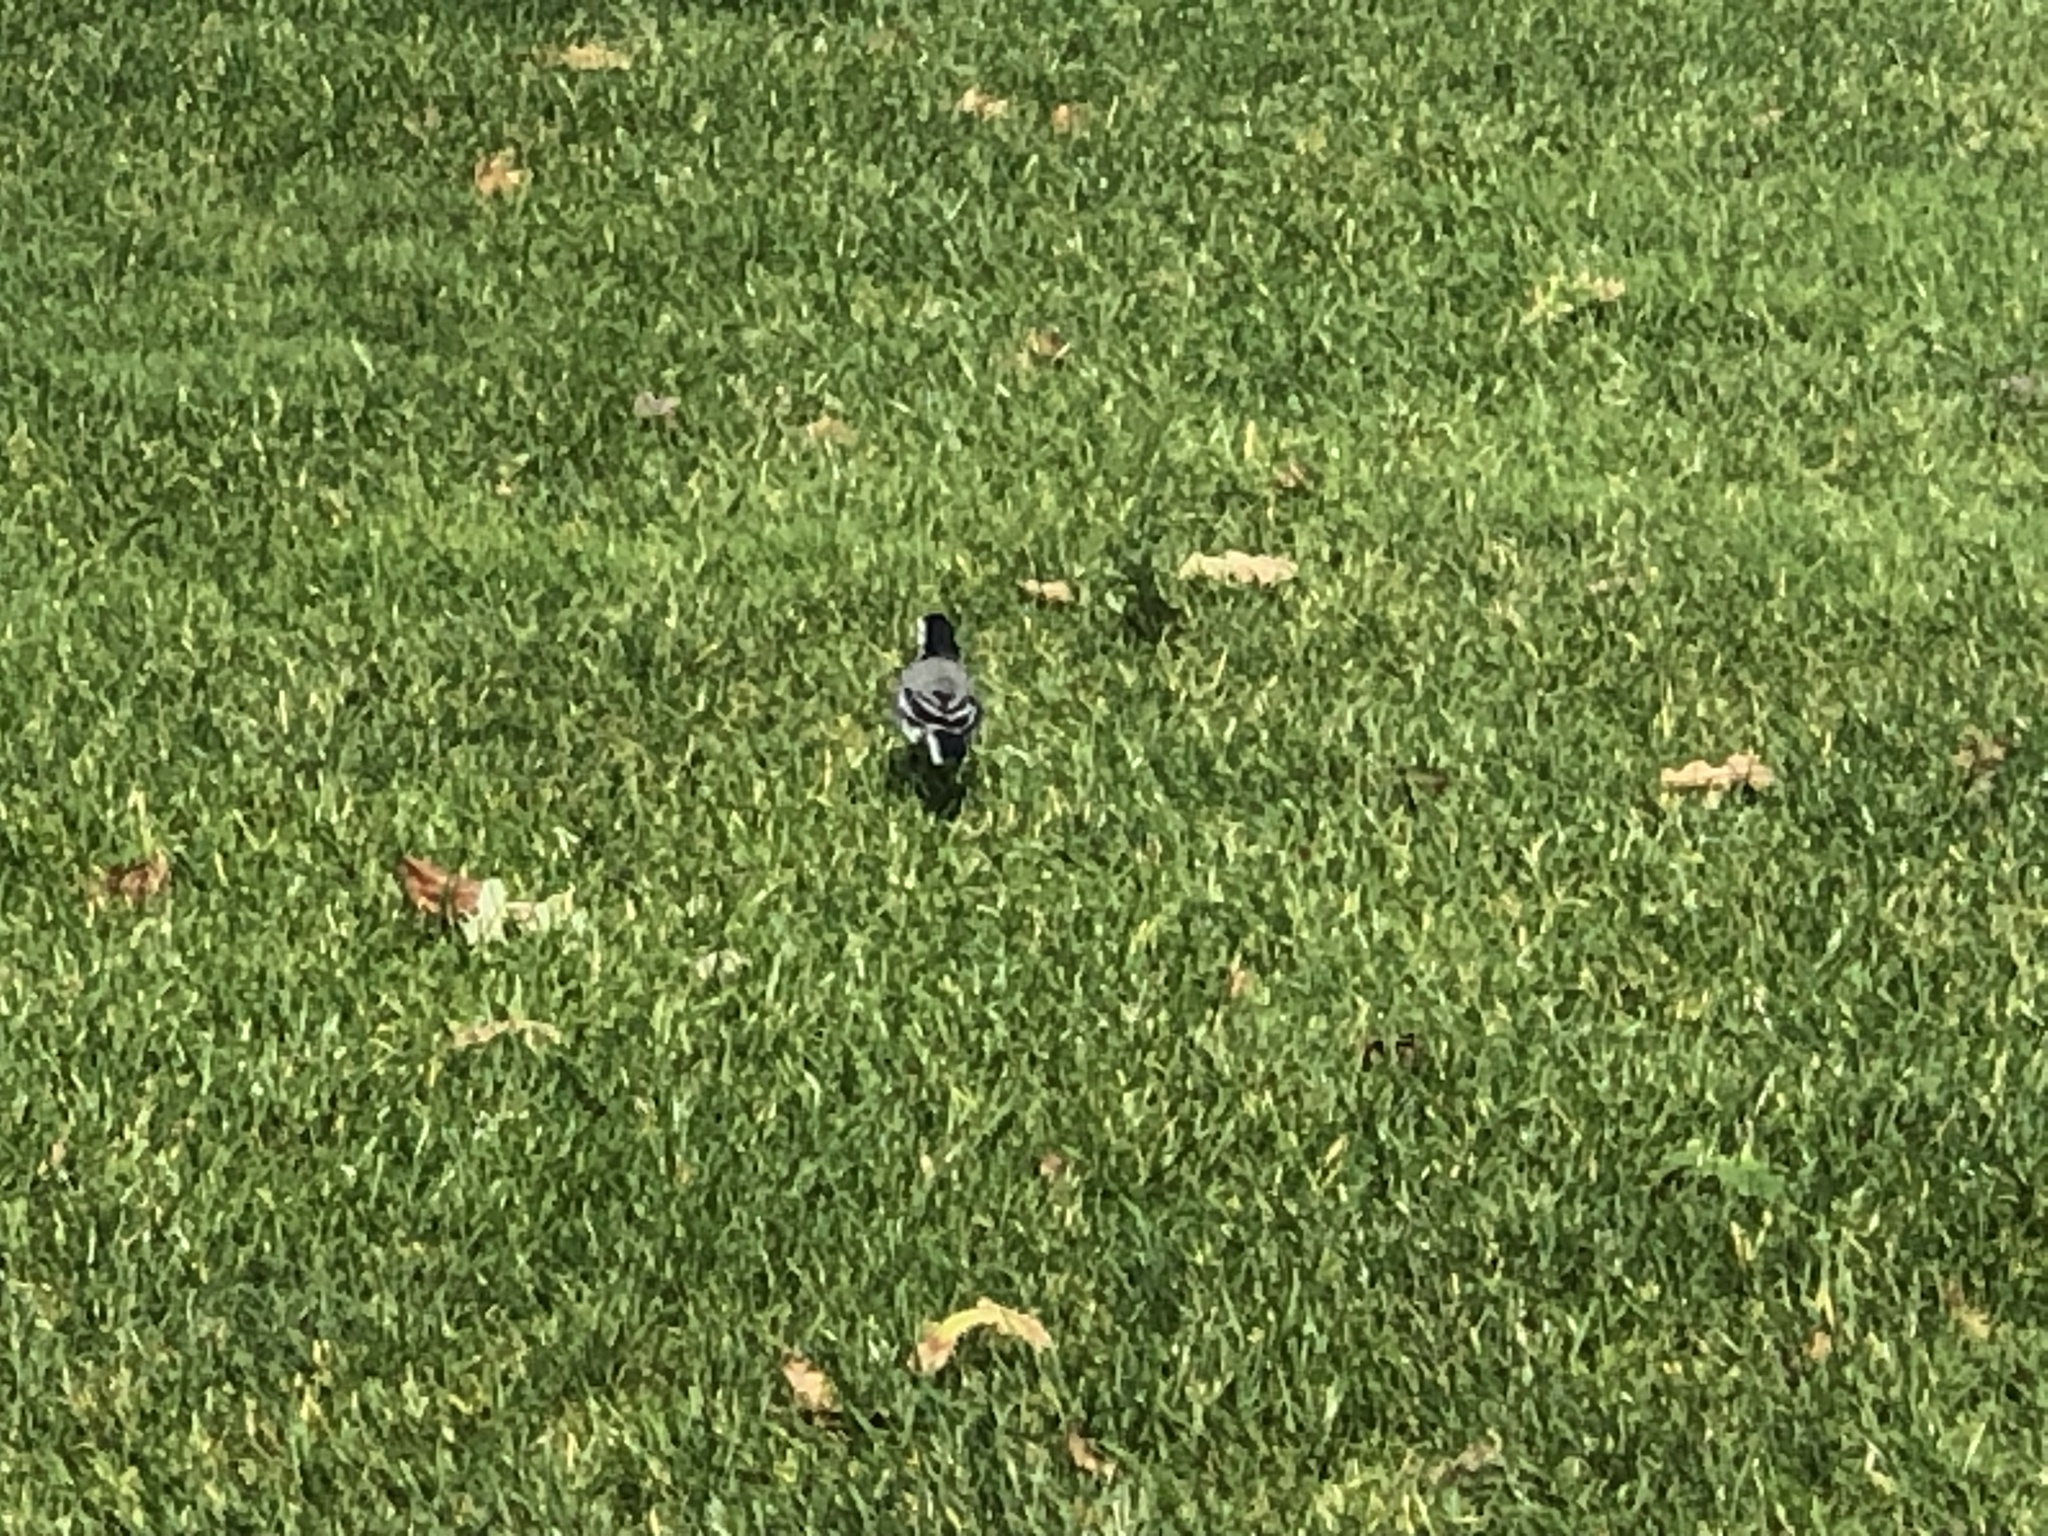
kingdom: Animalia
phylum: Chordata
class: Aves
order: Passeriformes
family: Motacillidae
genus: Motacilla
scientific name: Motacilla alba
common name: White wagtail
